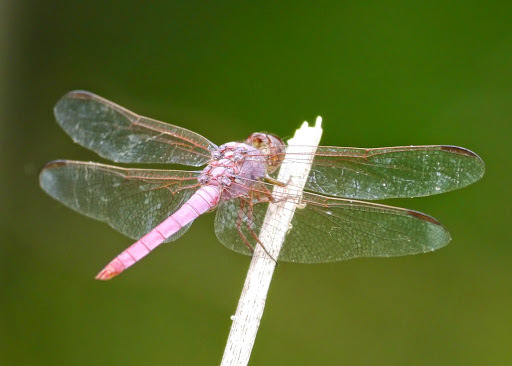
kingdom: Animalia
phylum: Arthropoda
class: Insecta
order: Odonata
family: Libellulidae
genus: Orthemis
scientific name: Orthemis ferruginea
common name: Roseate skimmer
